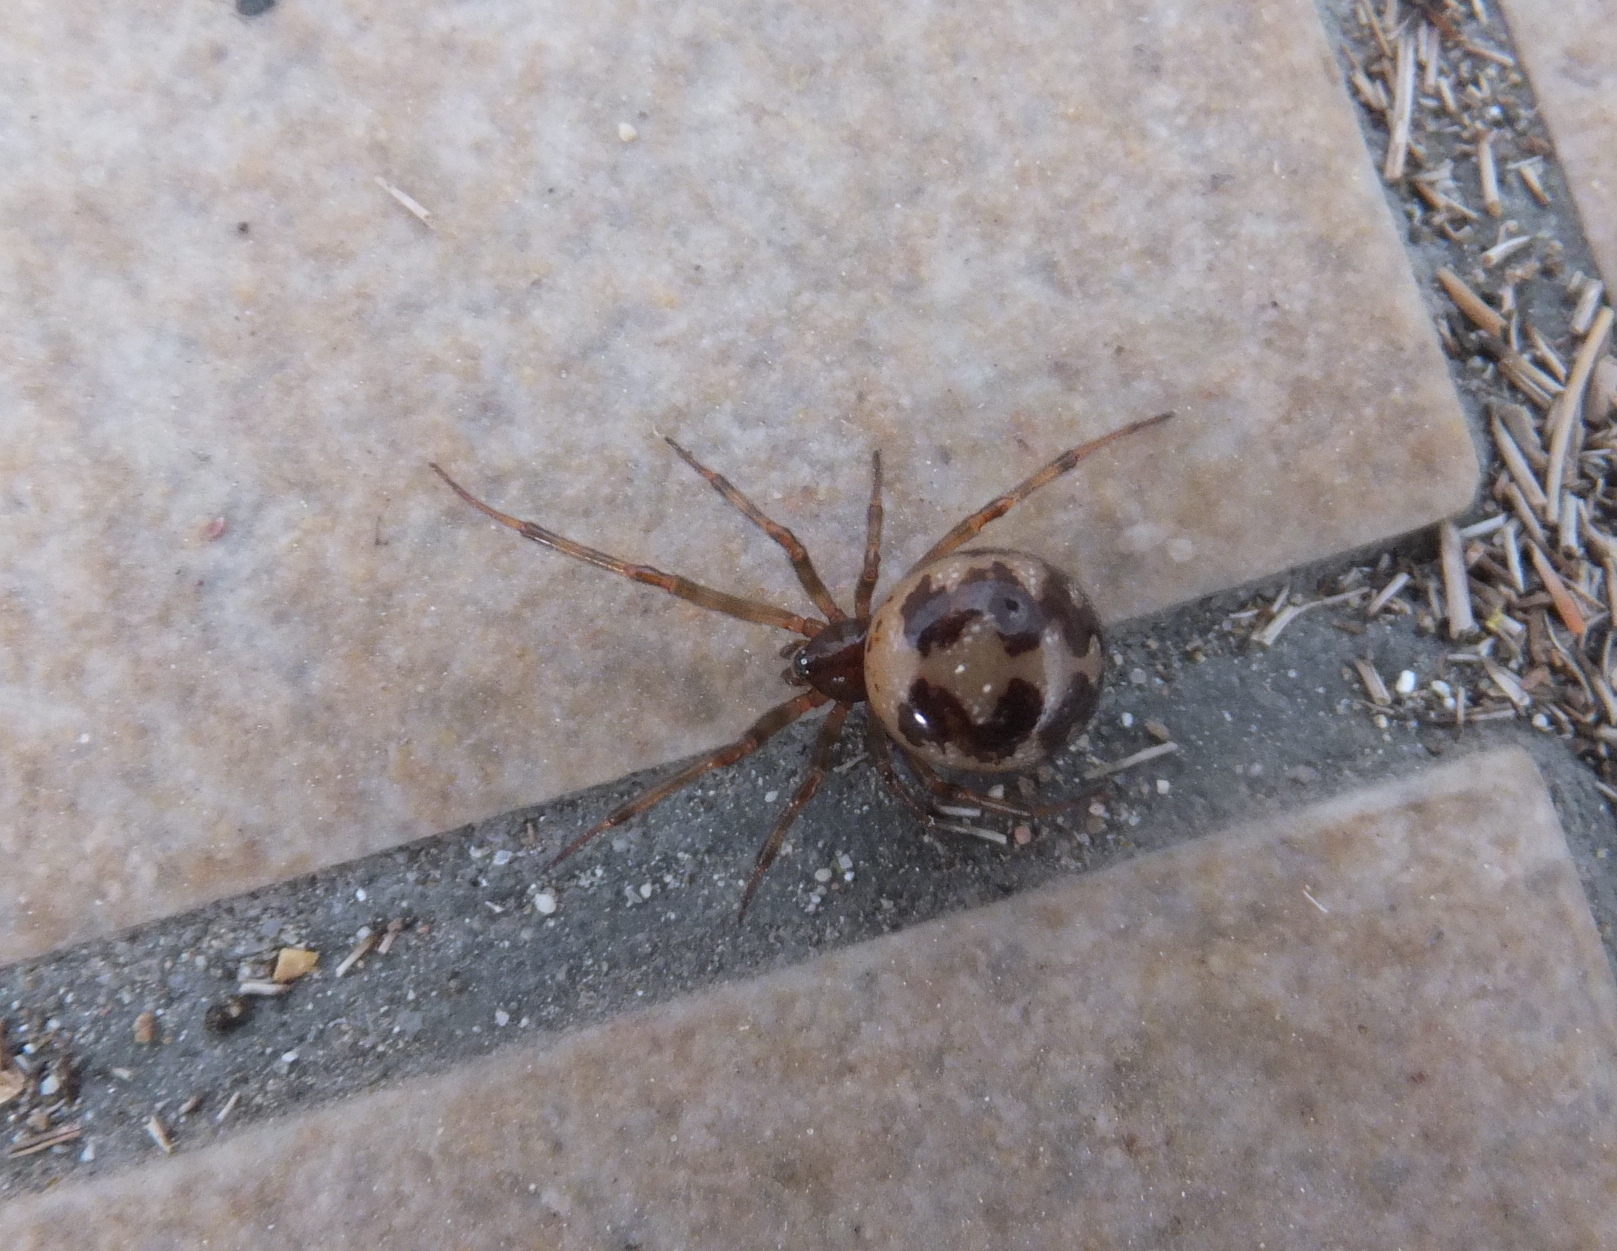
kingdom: Animalia
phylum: Arthropoda
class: Arachnida
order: Araneae
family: Theridiidae
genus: Steatoda
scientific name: Steatoda triangulosa
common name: Triangulate bud spider
